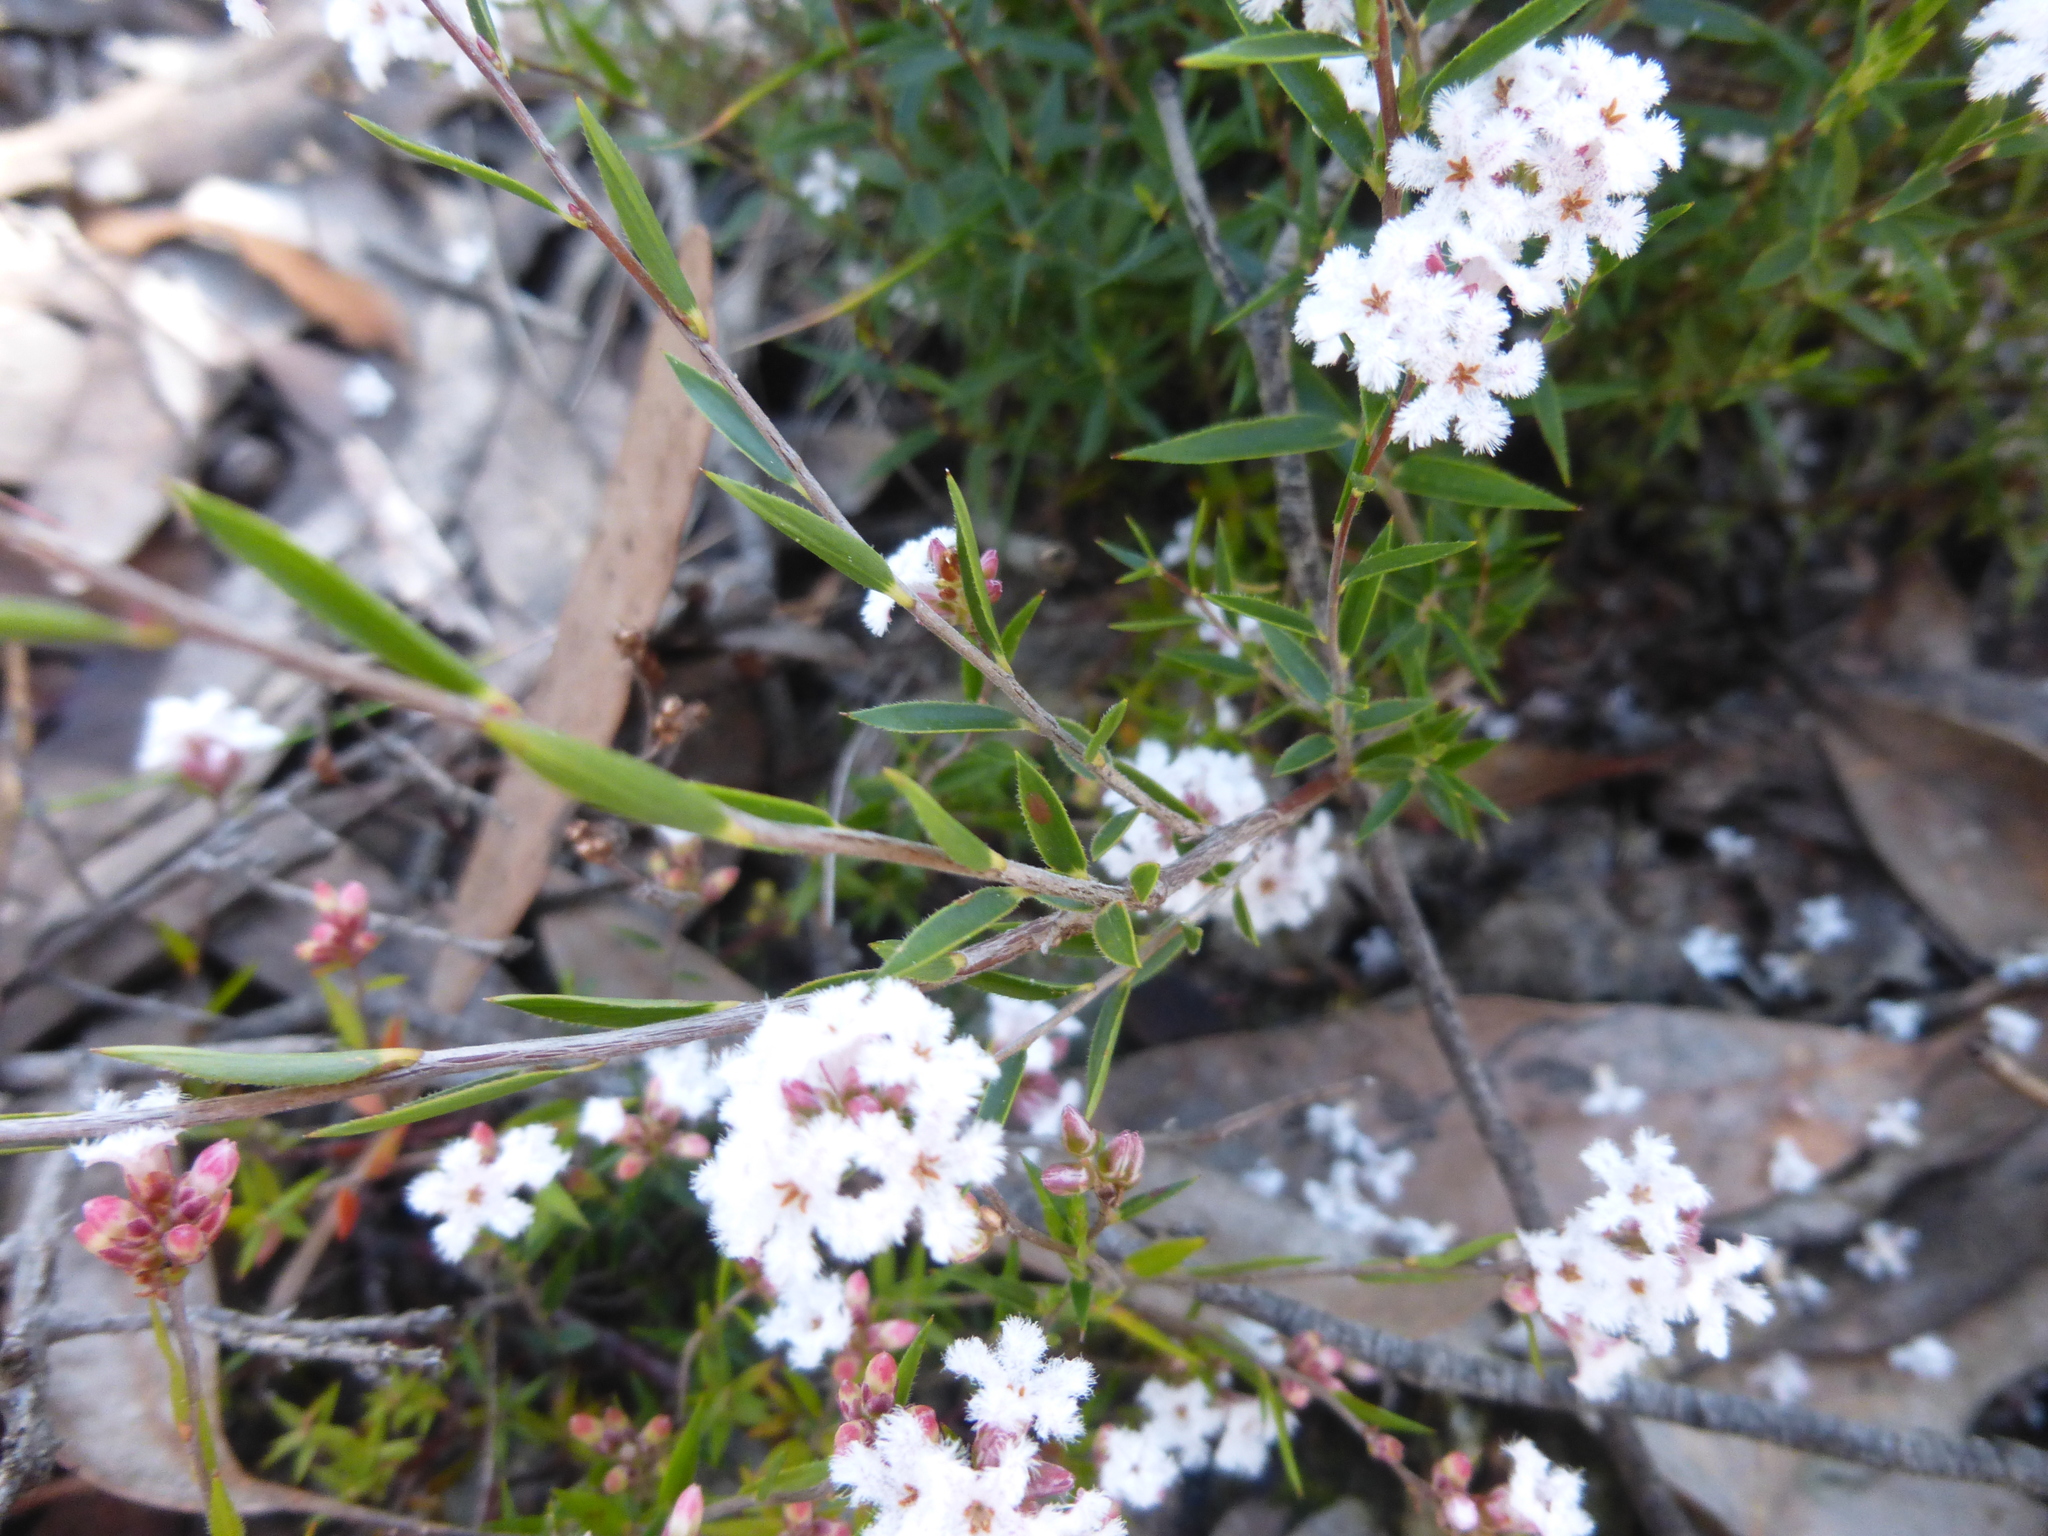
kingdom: Plantae
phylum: Tracheophyta
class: Magnoliopsida
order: Ericales
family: Ericaceae
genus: Leucopogon
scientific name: Leucopogon virgatus
